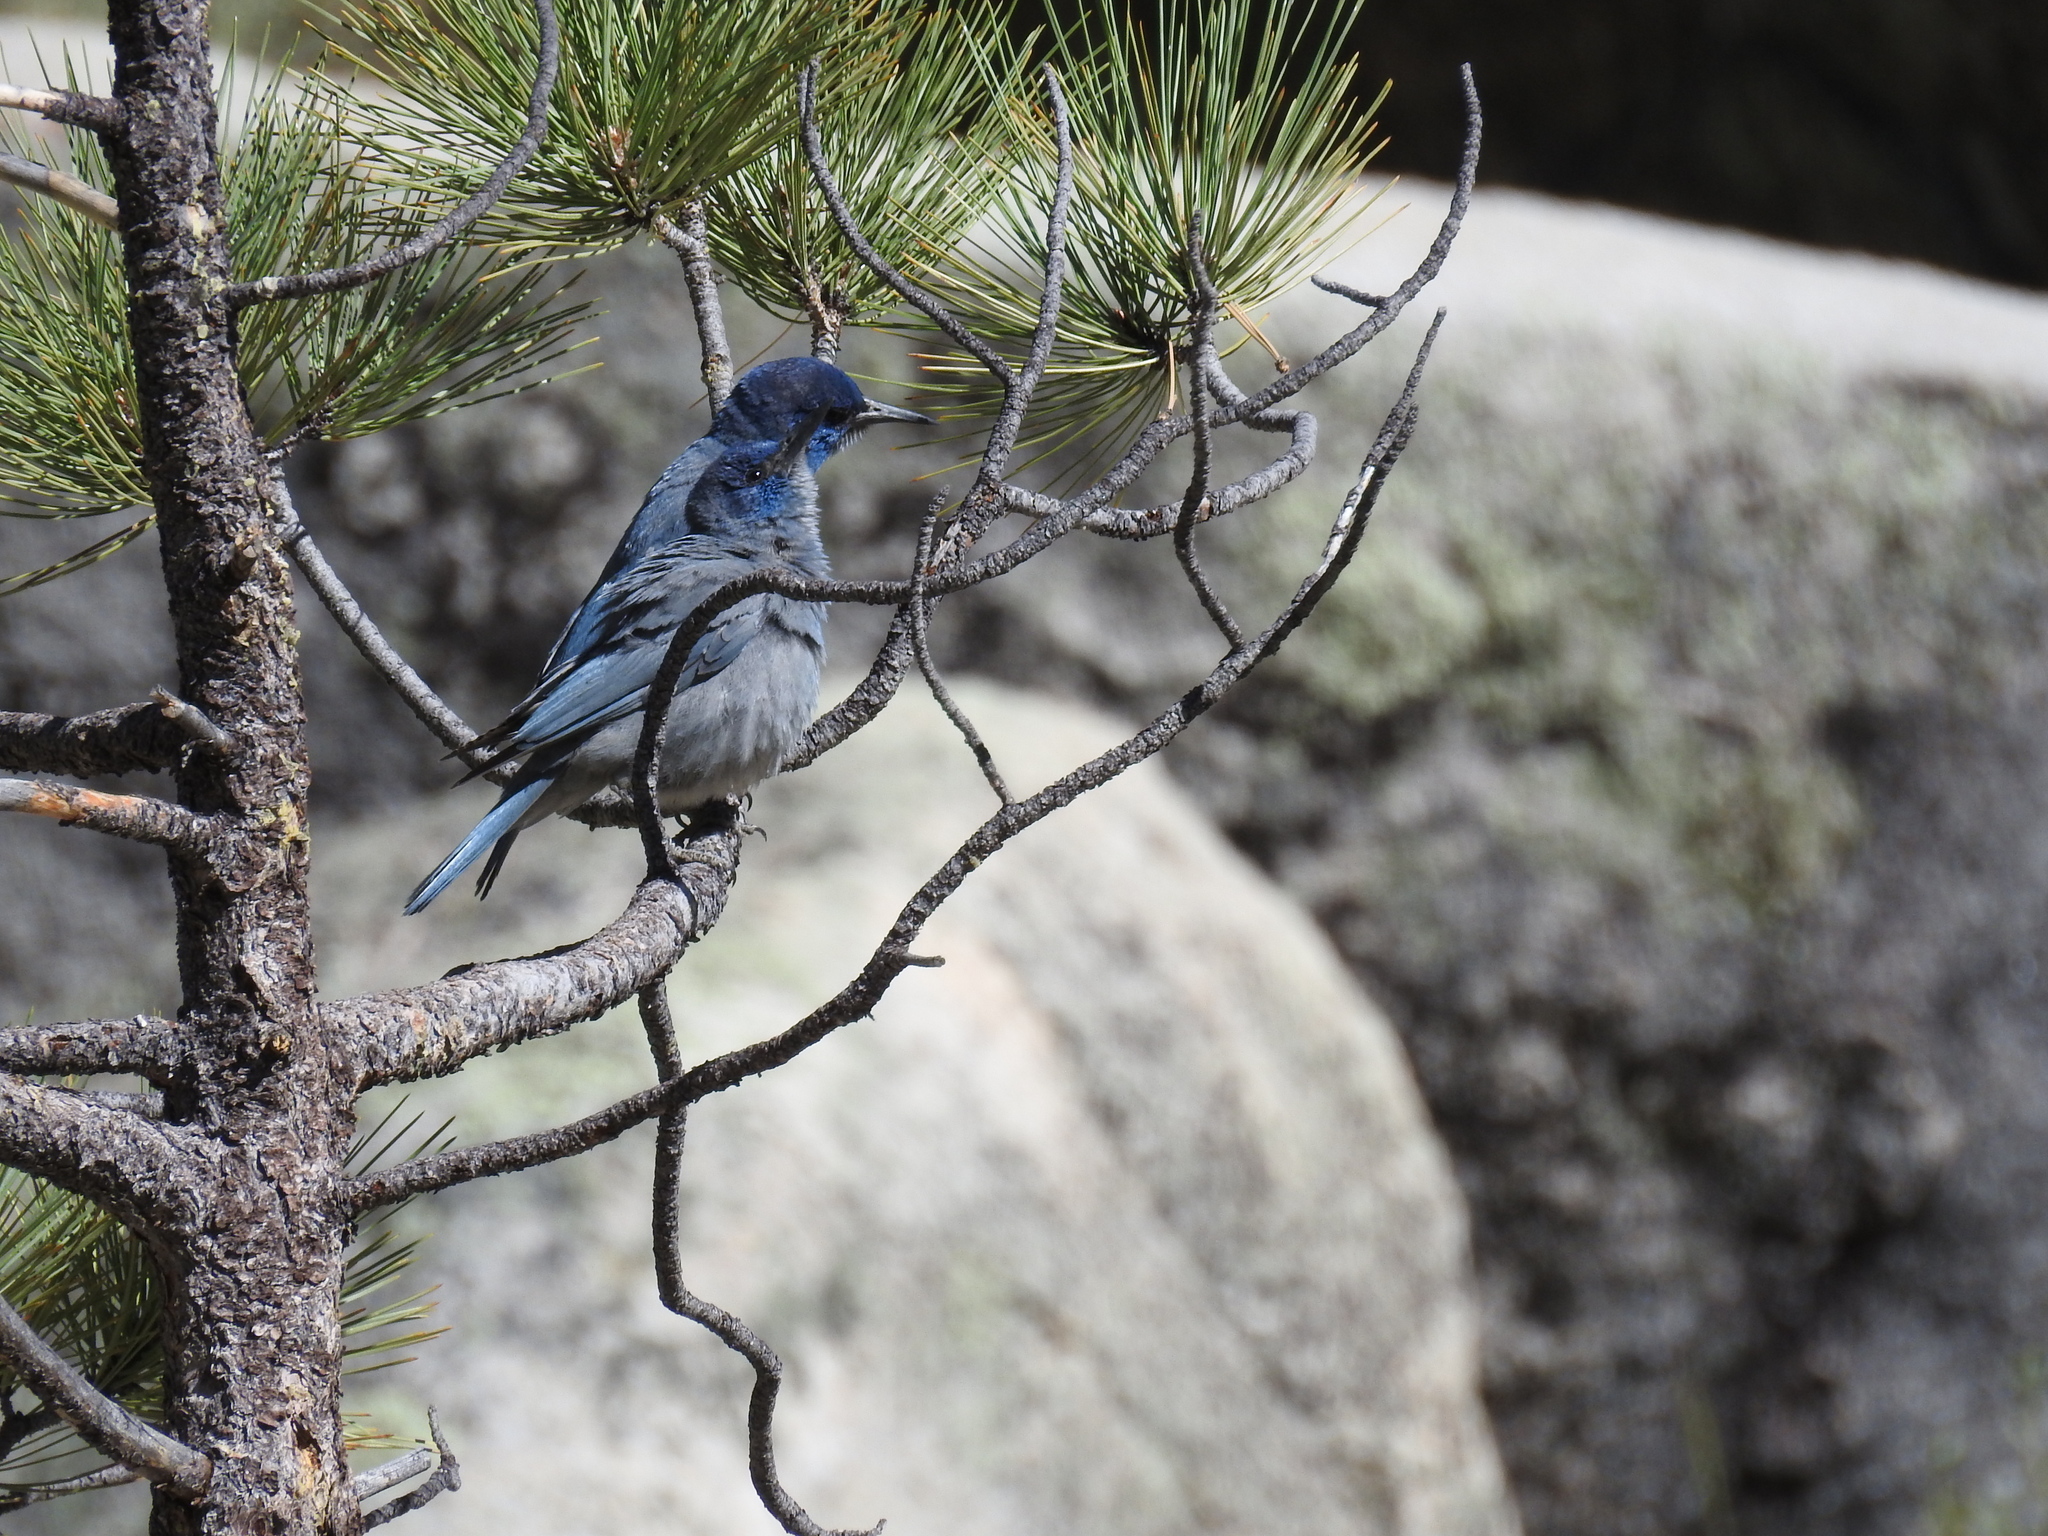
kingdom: Animalia
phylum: Chordata
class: Aves
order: Passeriformes
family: Corvidae
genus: Gymnorhinus
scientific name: Gymnorhinus cyanocephalus
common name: Pinyon jay
